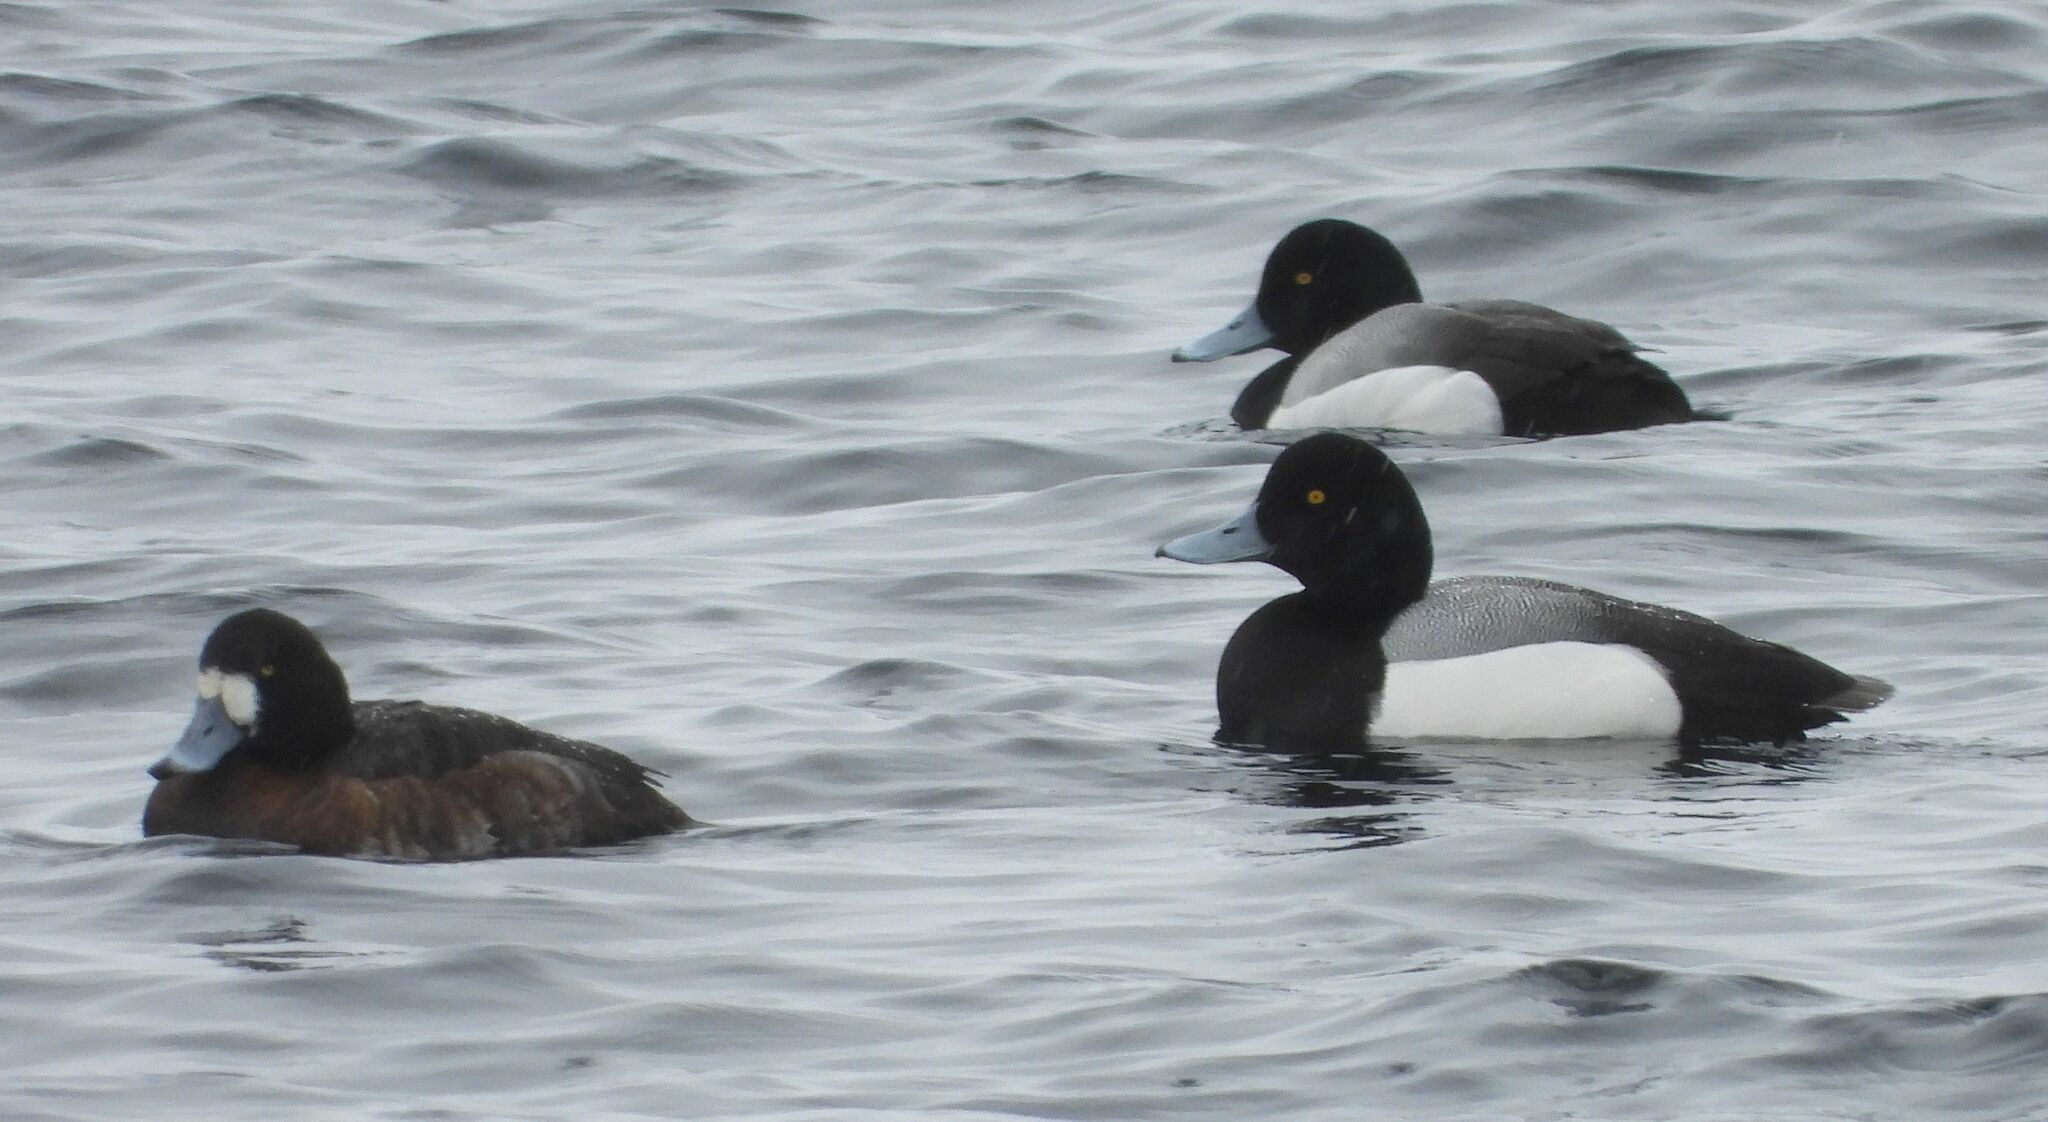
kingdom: Animalia
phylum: Chordata
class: Aves
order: Anseriformes
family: Anatidae
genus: Aythya
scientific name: Aythya marila
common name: Greater scaup
